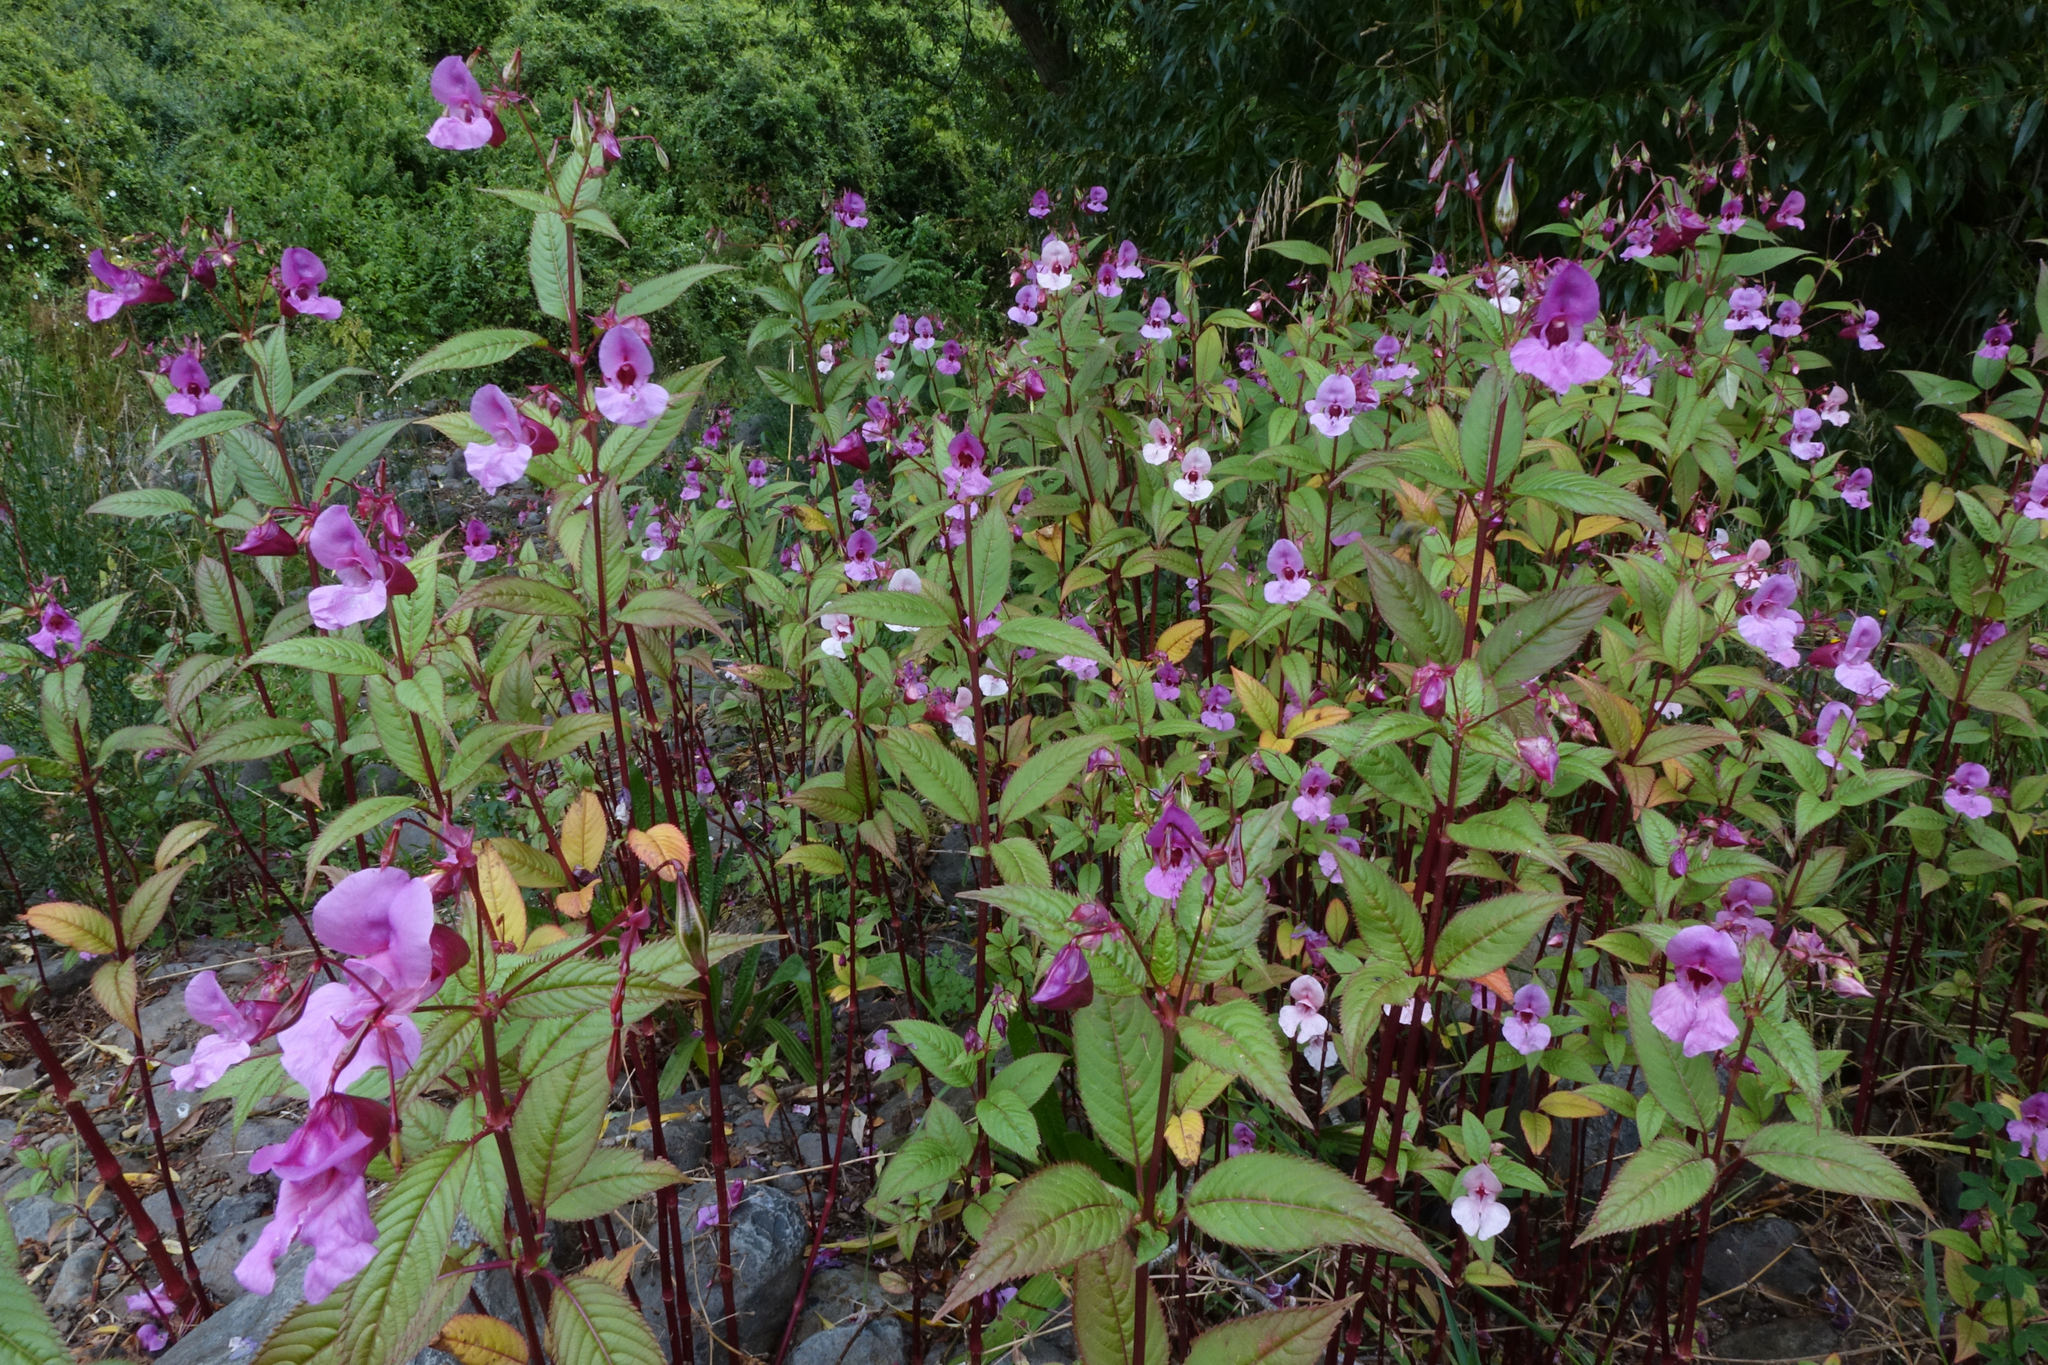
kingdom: Plantae
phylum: Tracheophyta
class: Magnoliopsida
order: Ericales
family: Balsaminaceae
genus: Impatiens
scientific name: Impatiens glandulifera
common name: Himalayan balsam
